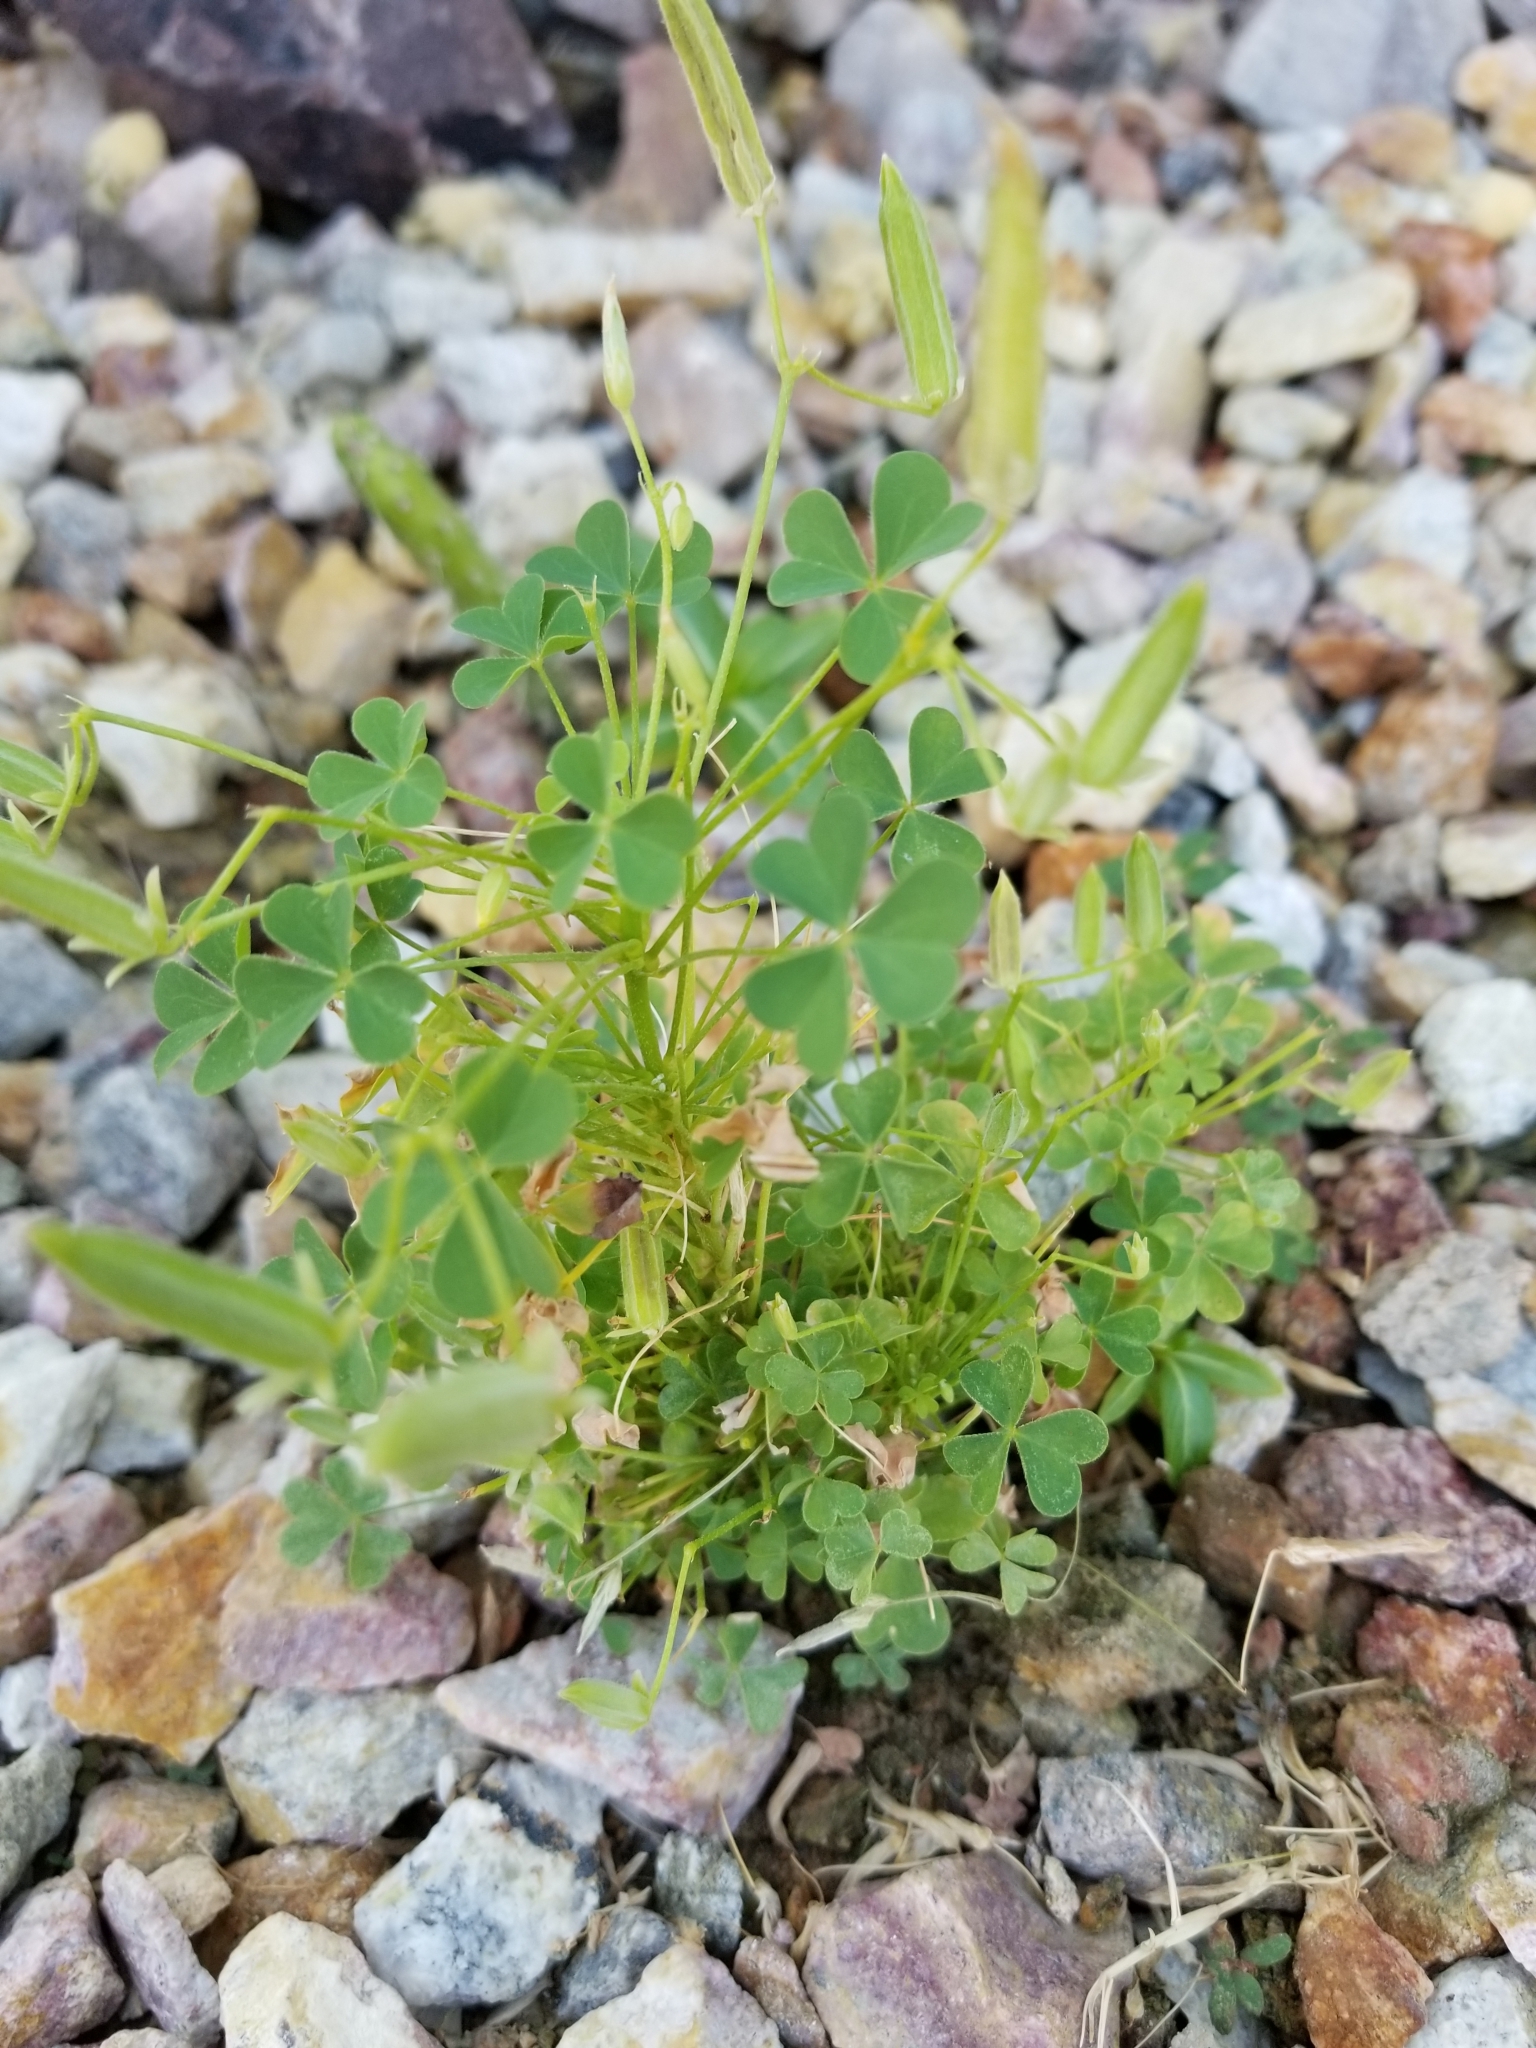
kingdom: Plantae
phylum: Tracheophyta
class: Magnoliopsida
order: Oxalidales
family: Oxalidaceae
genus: Oxalis
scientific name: Oxalis dillenii
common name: Sussex yellow-sorrel
